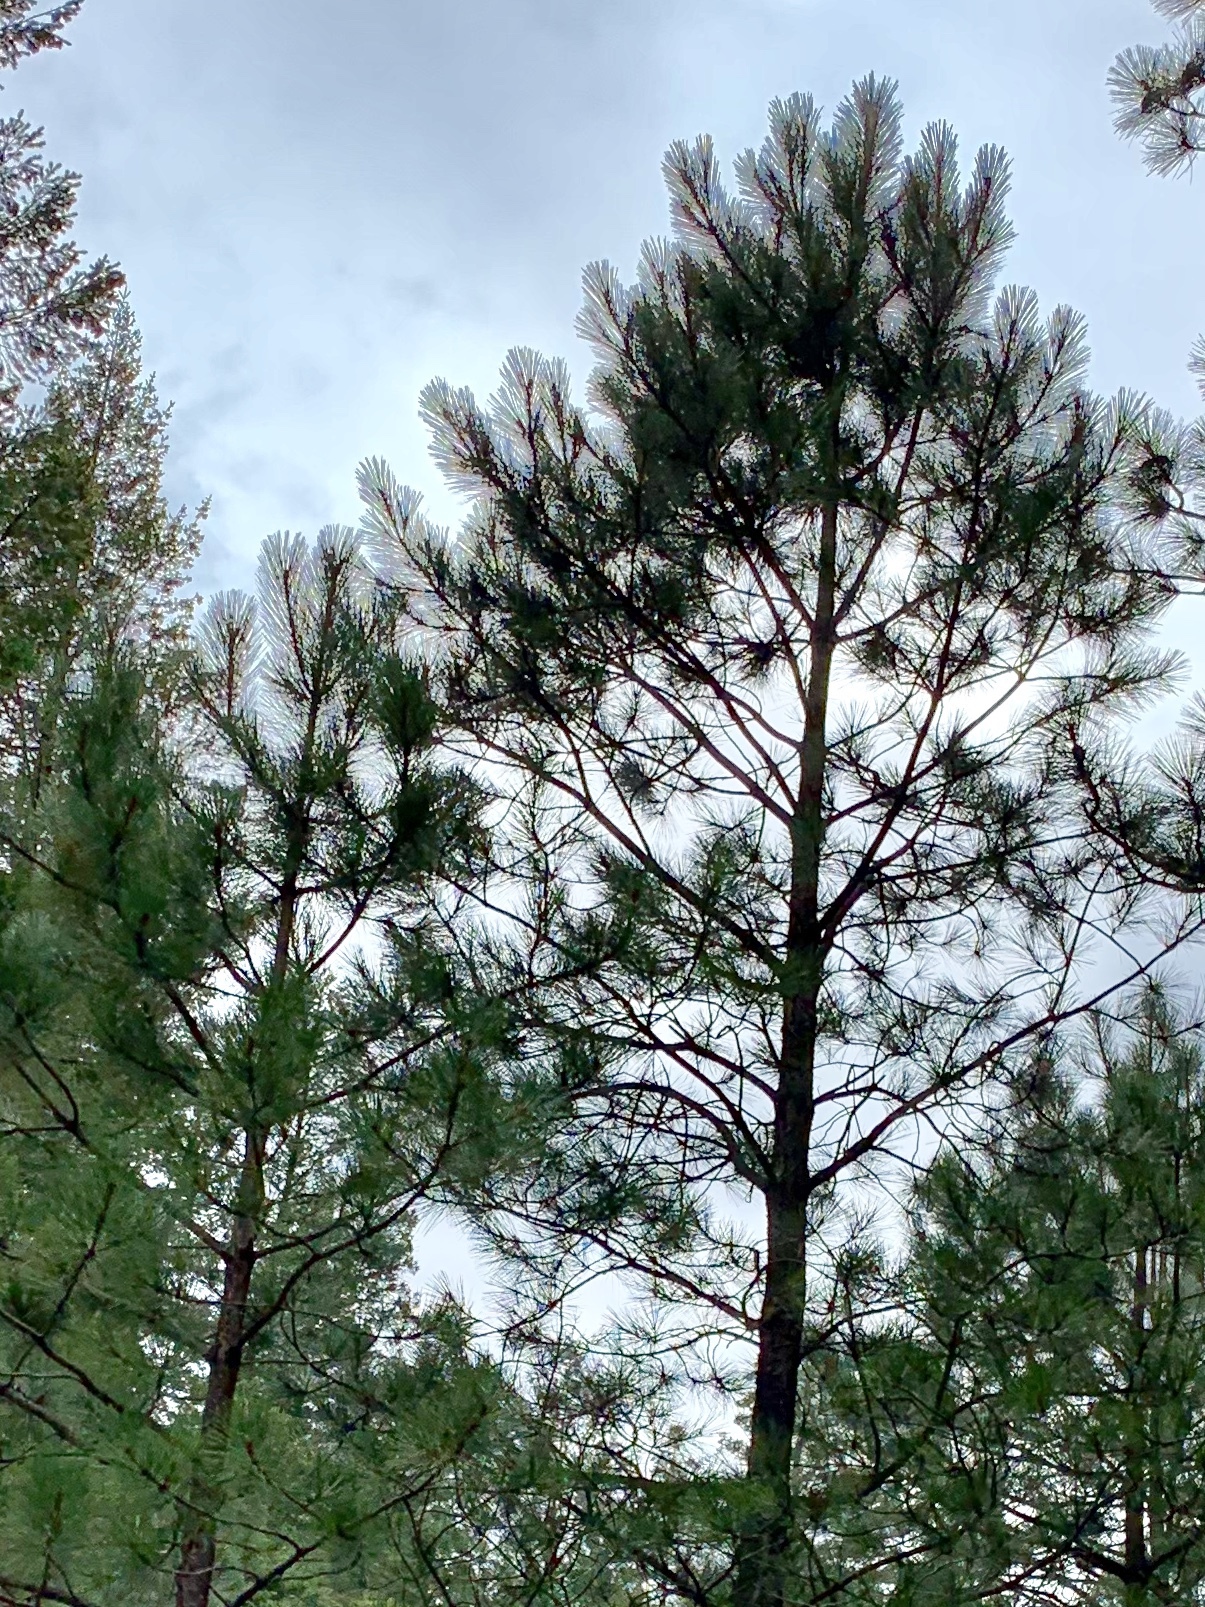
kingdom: Plantae
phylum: Tracheophyta
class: Pinopsida
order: Pinales
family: Pinaceae
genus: Pinus
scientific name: Pinus ponderosa
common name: Western yellow-pine
